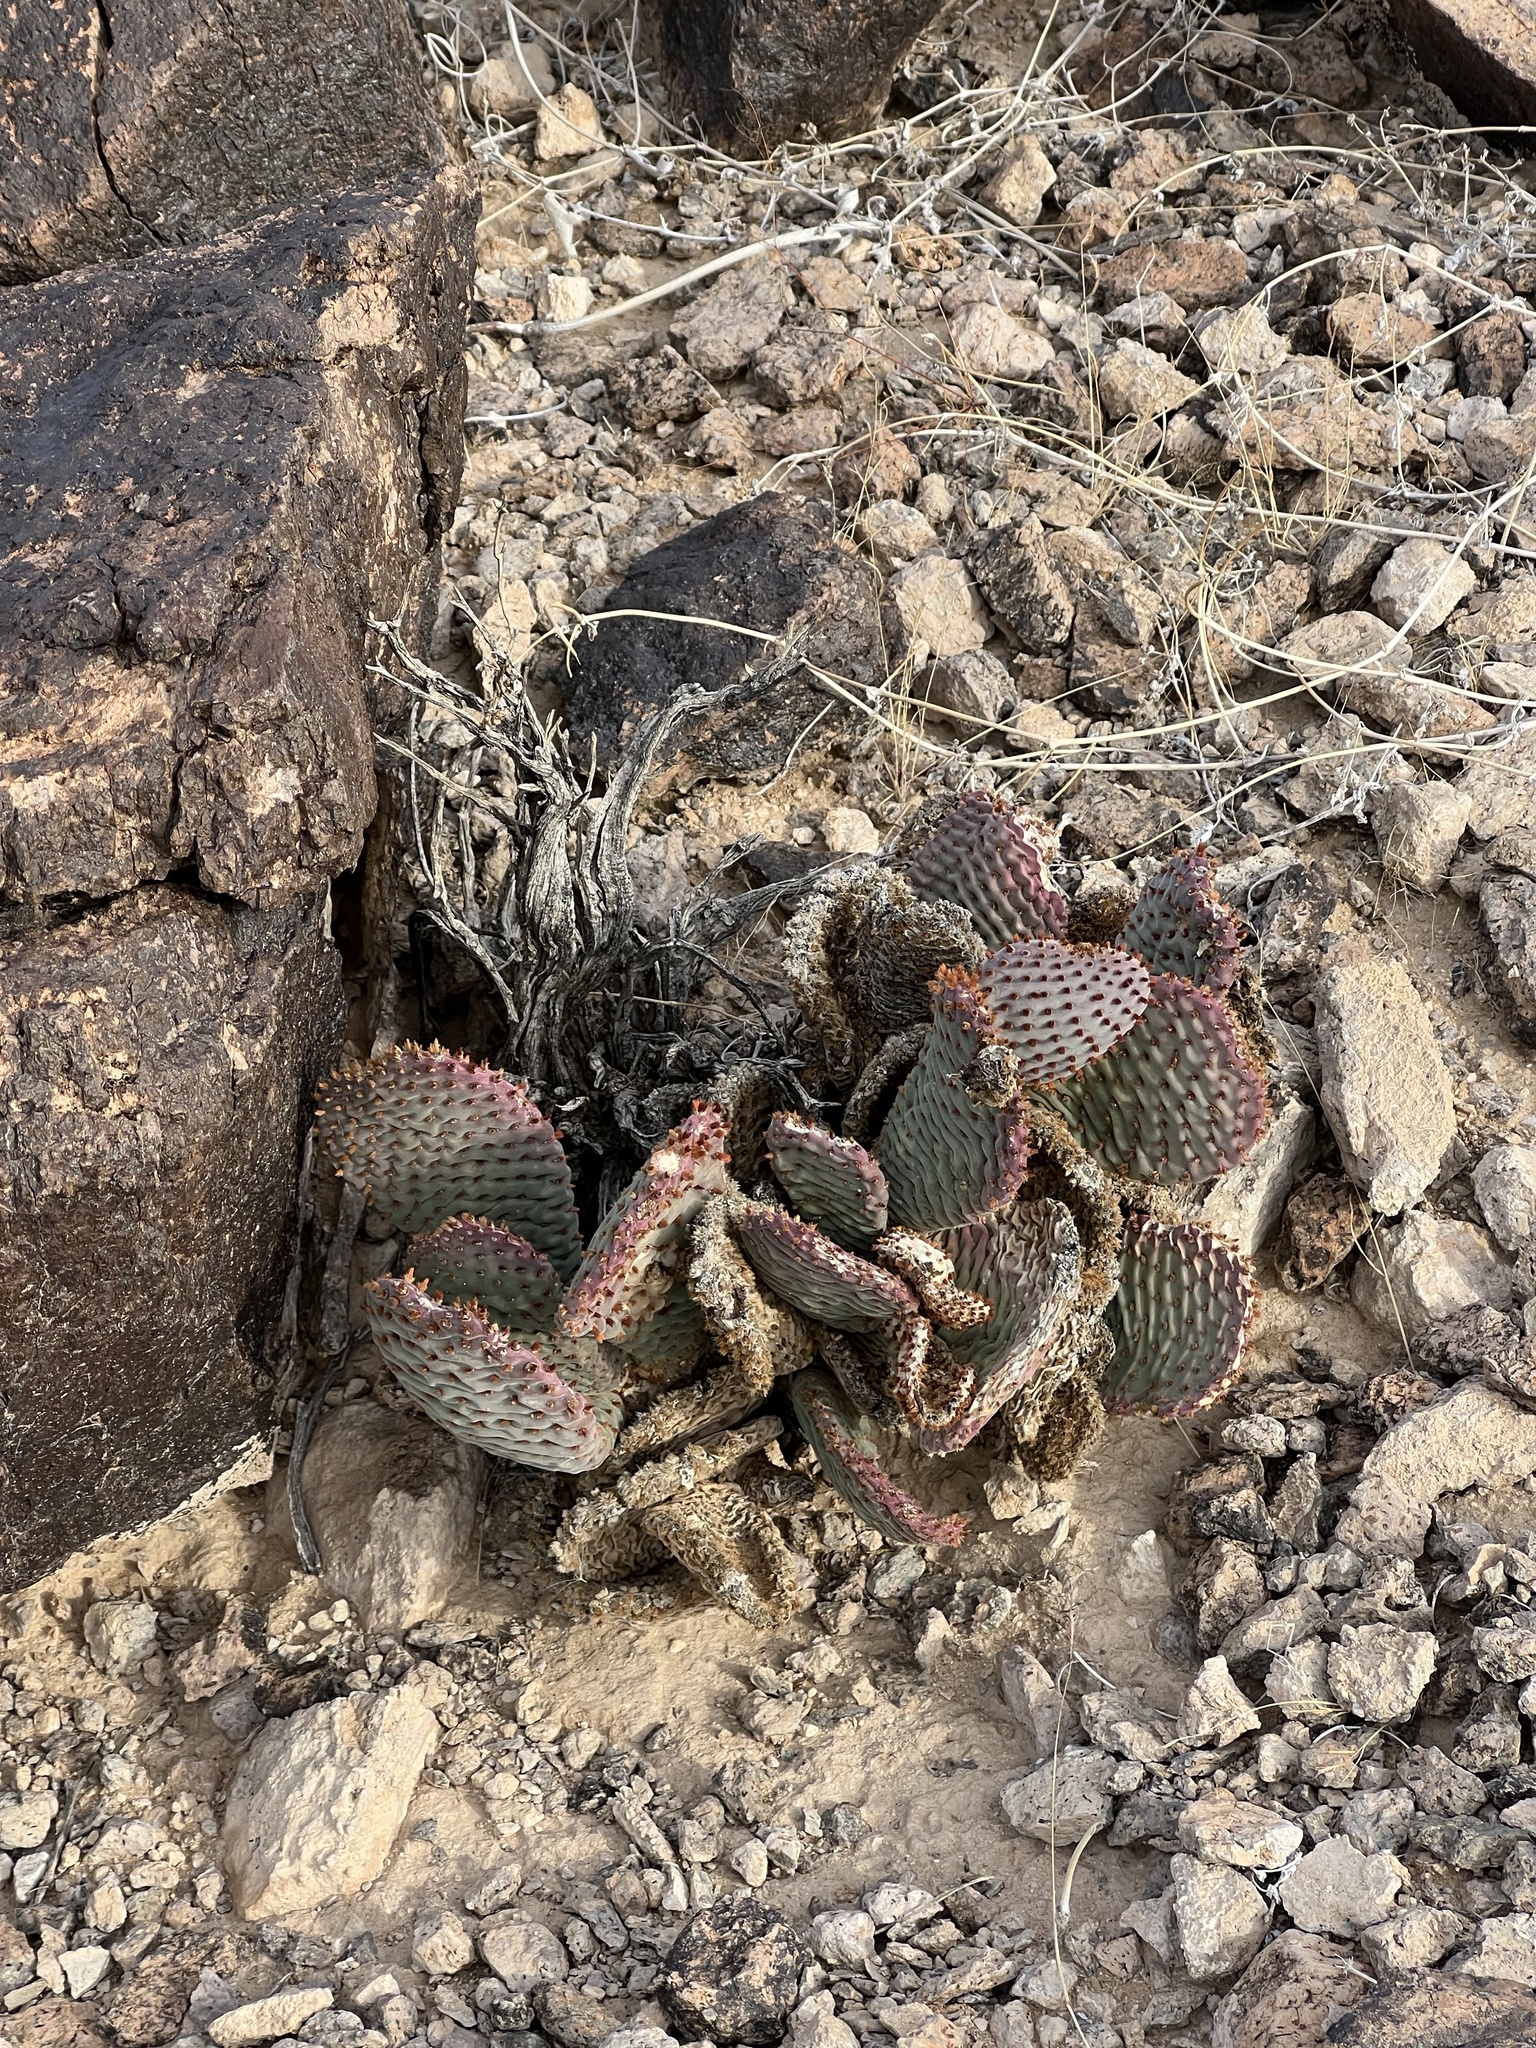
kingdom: Plantae
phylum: Tracheophyta
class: Magnoliopsida
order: Caryophyllales
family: Cactaceae
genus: Opuntia
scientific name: Opuntia basilaris
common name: Beavertail prickly-pear
